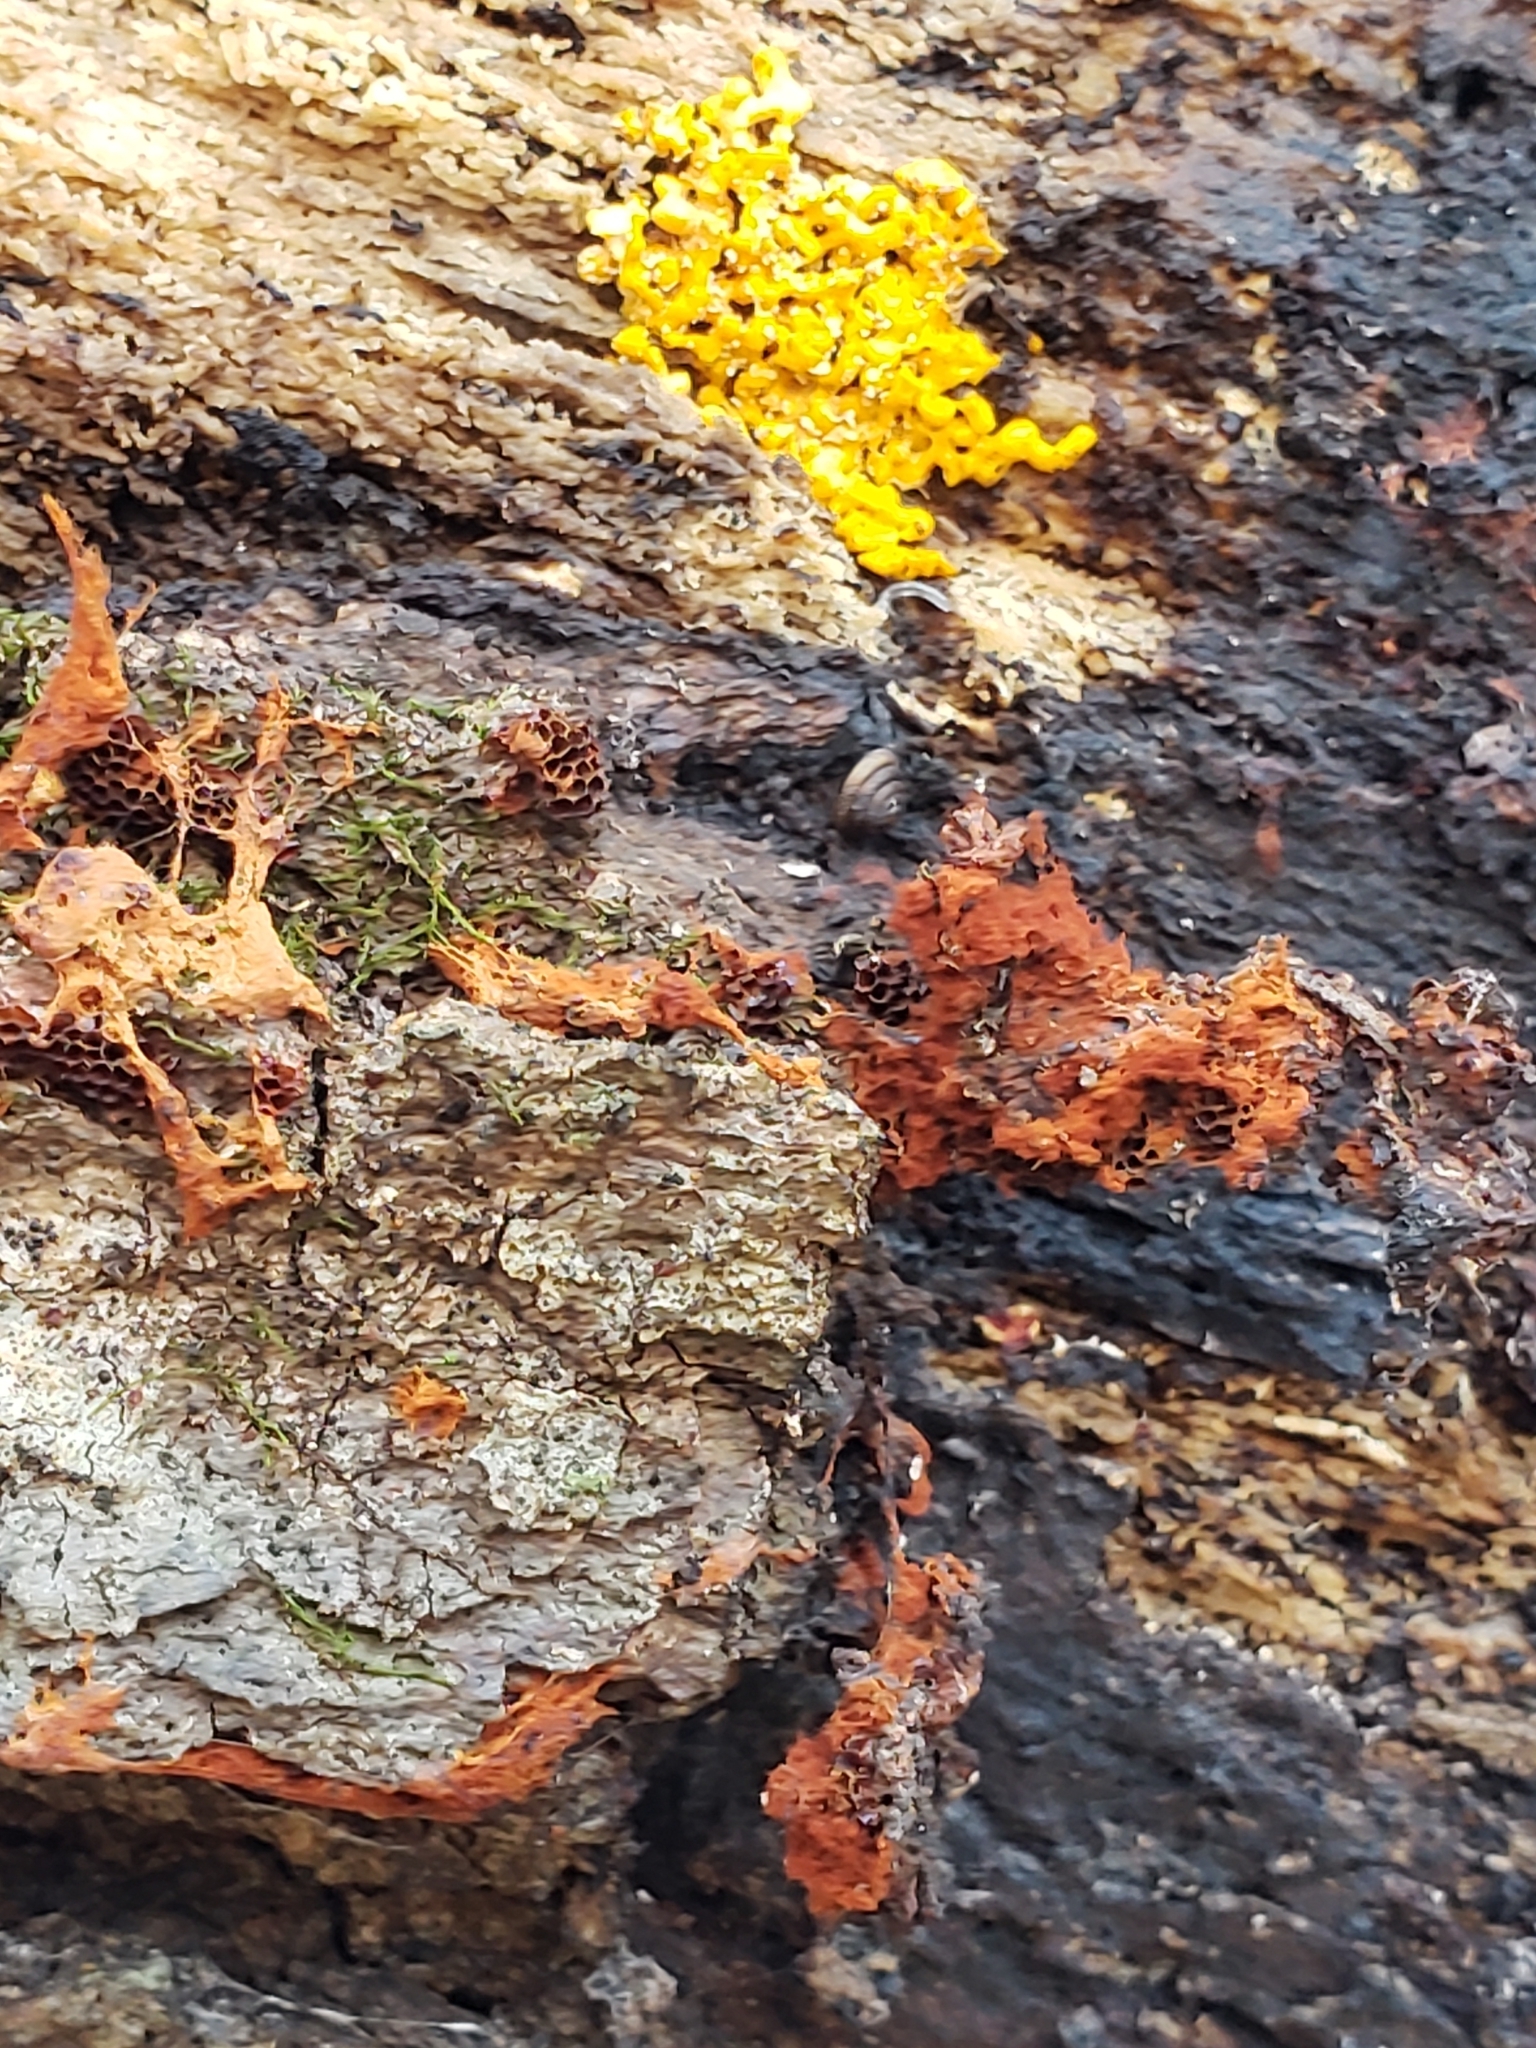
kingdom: Protozoa
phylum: Mycetozoa
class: Myxomycetes
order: Trichiales
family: Trichiaceae
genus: Metatrichia
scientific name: Metatrichia vesparia
